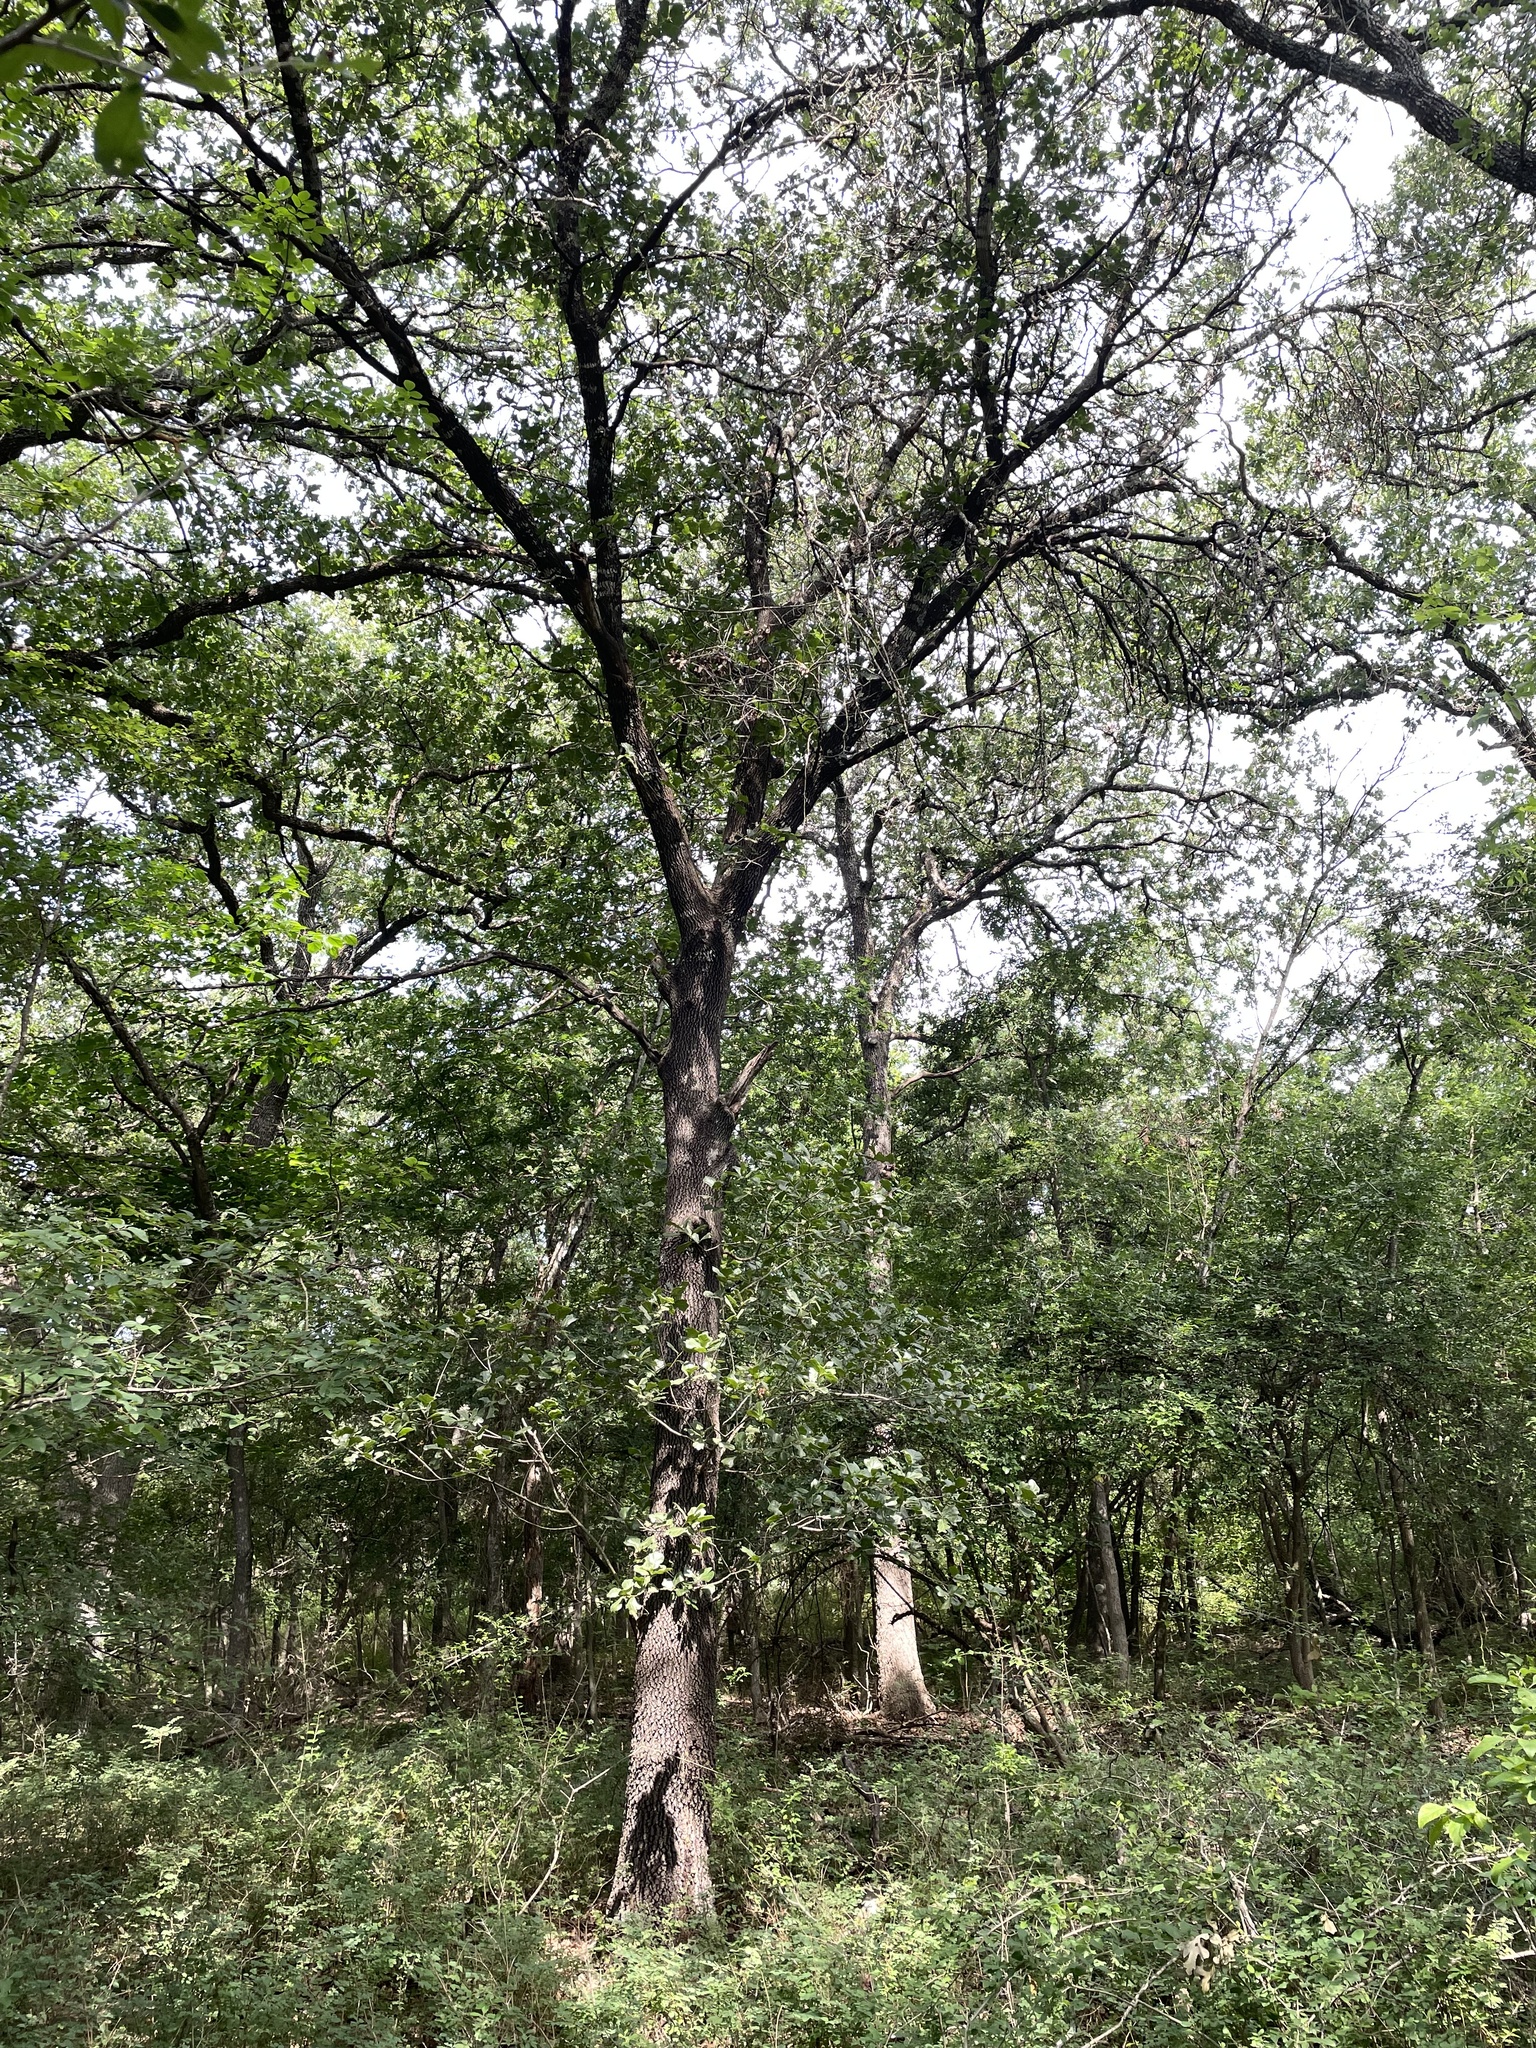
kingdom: Plantae
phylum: Tracheophyta
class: Magnoliopsida
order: Fagales
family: Fagaceae
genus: Quercus
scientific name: Quercus marilandica
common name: Blackjack oak
